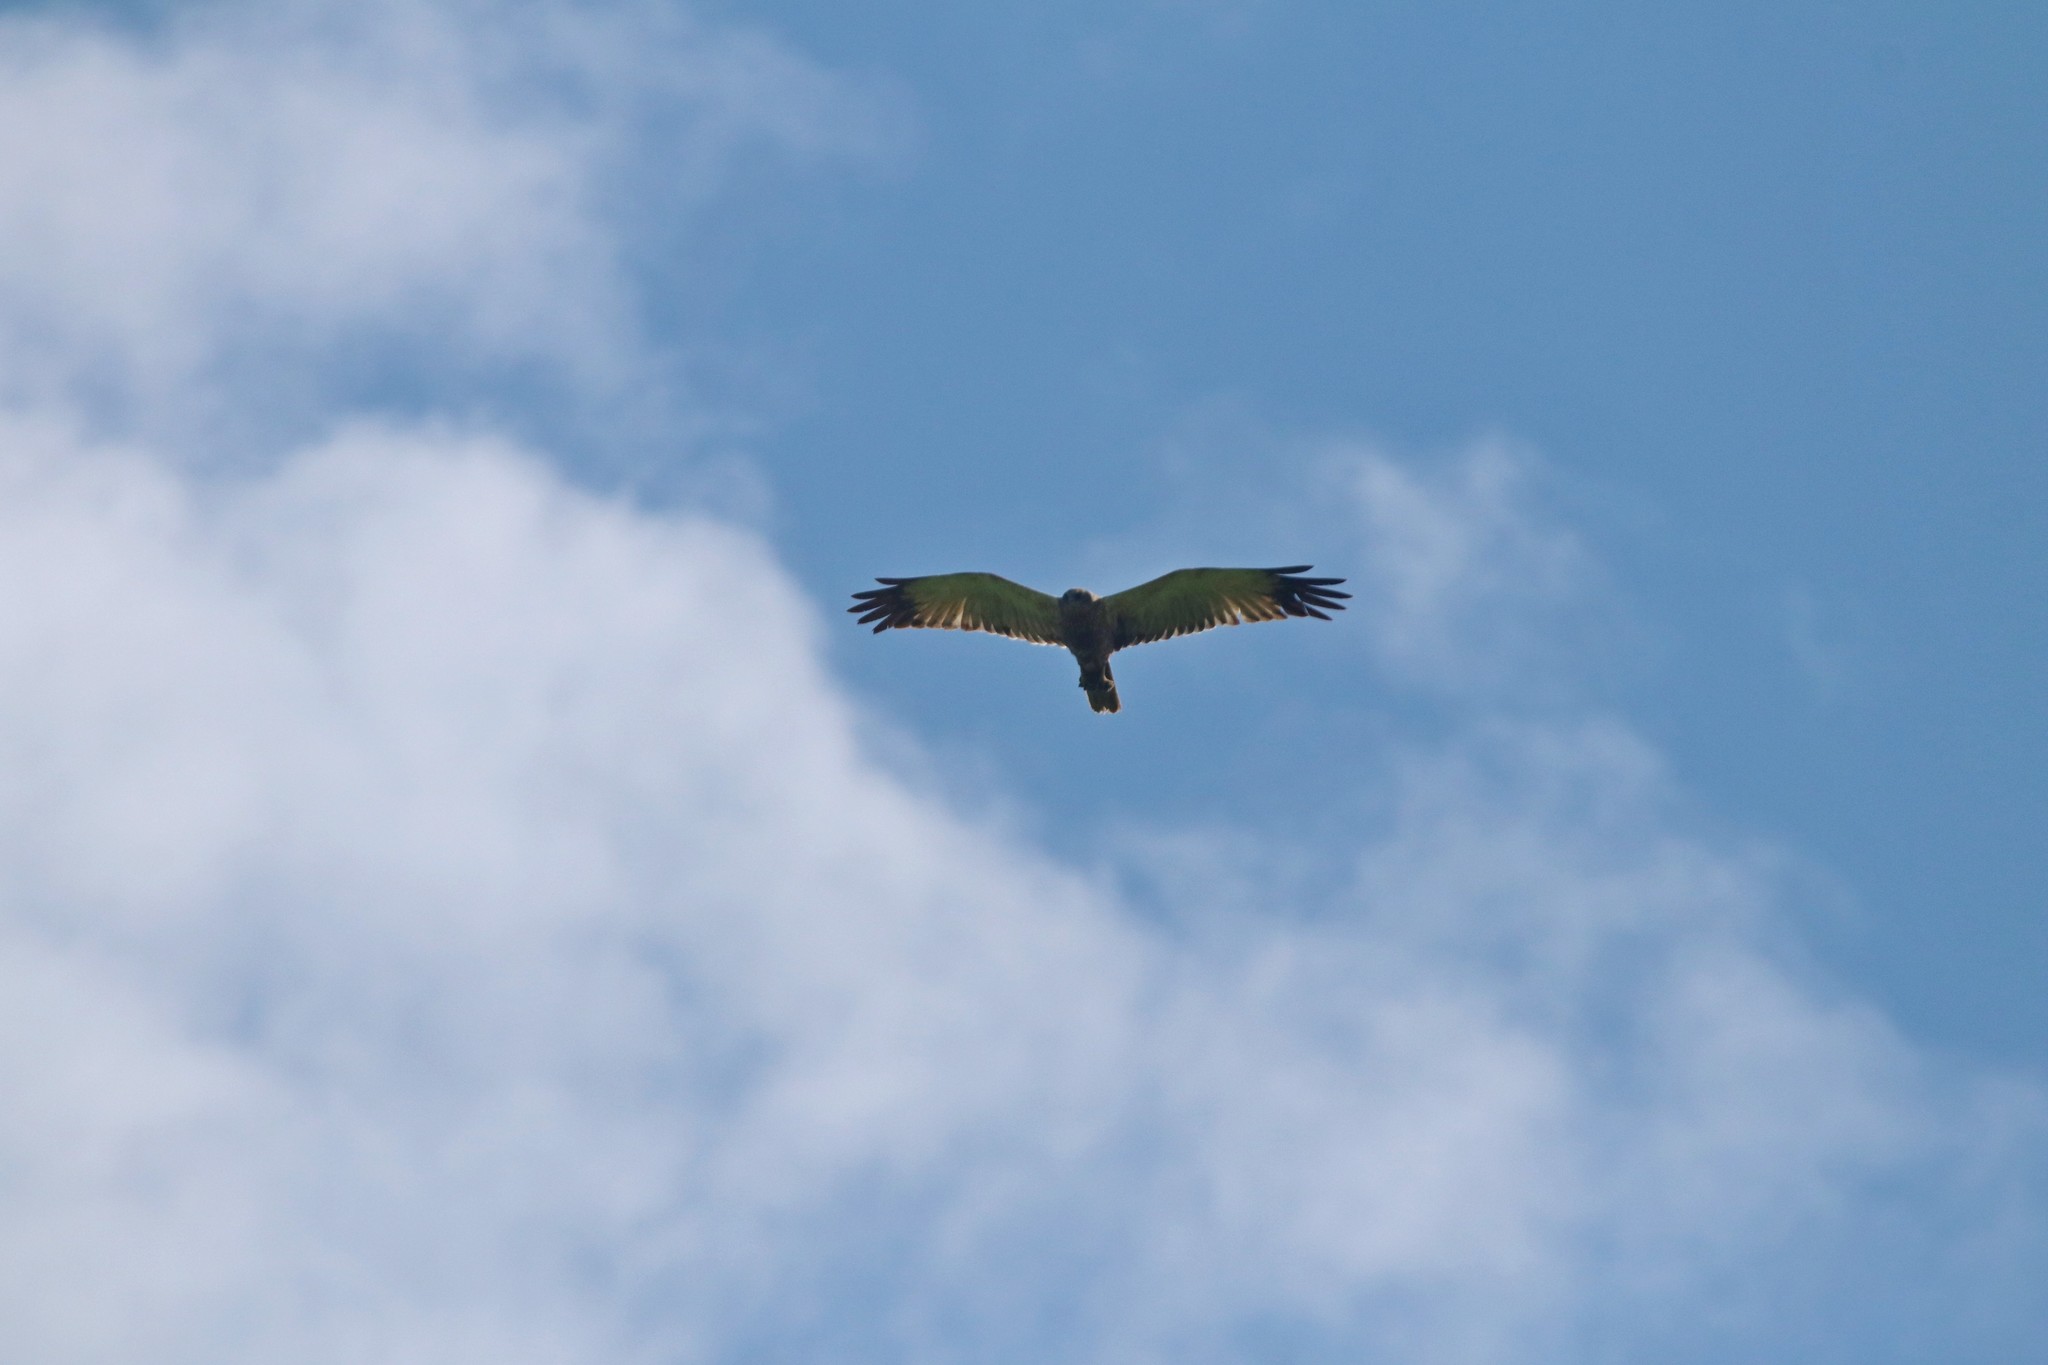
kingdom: Animalia
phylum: Chordata
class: Aves
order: Accipitriformes
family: Accipitridae
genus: Circus
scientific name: Circus aeruginosus
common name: Western marsh harrier
